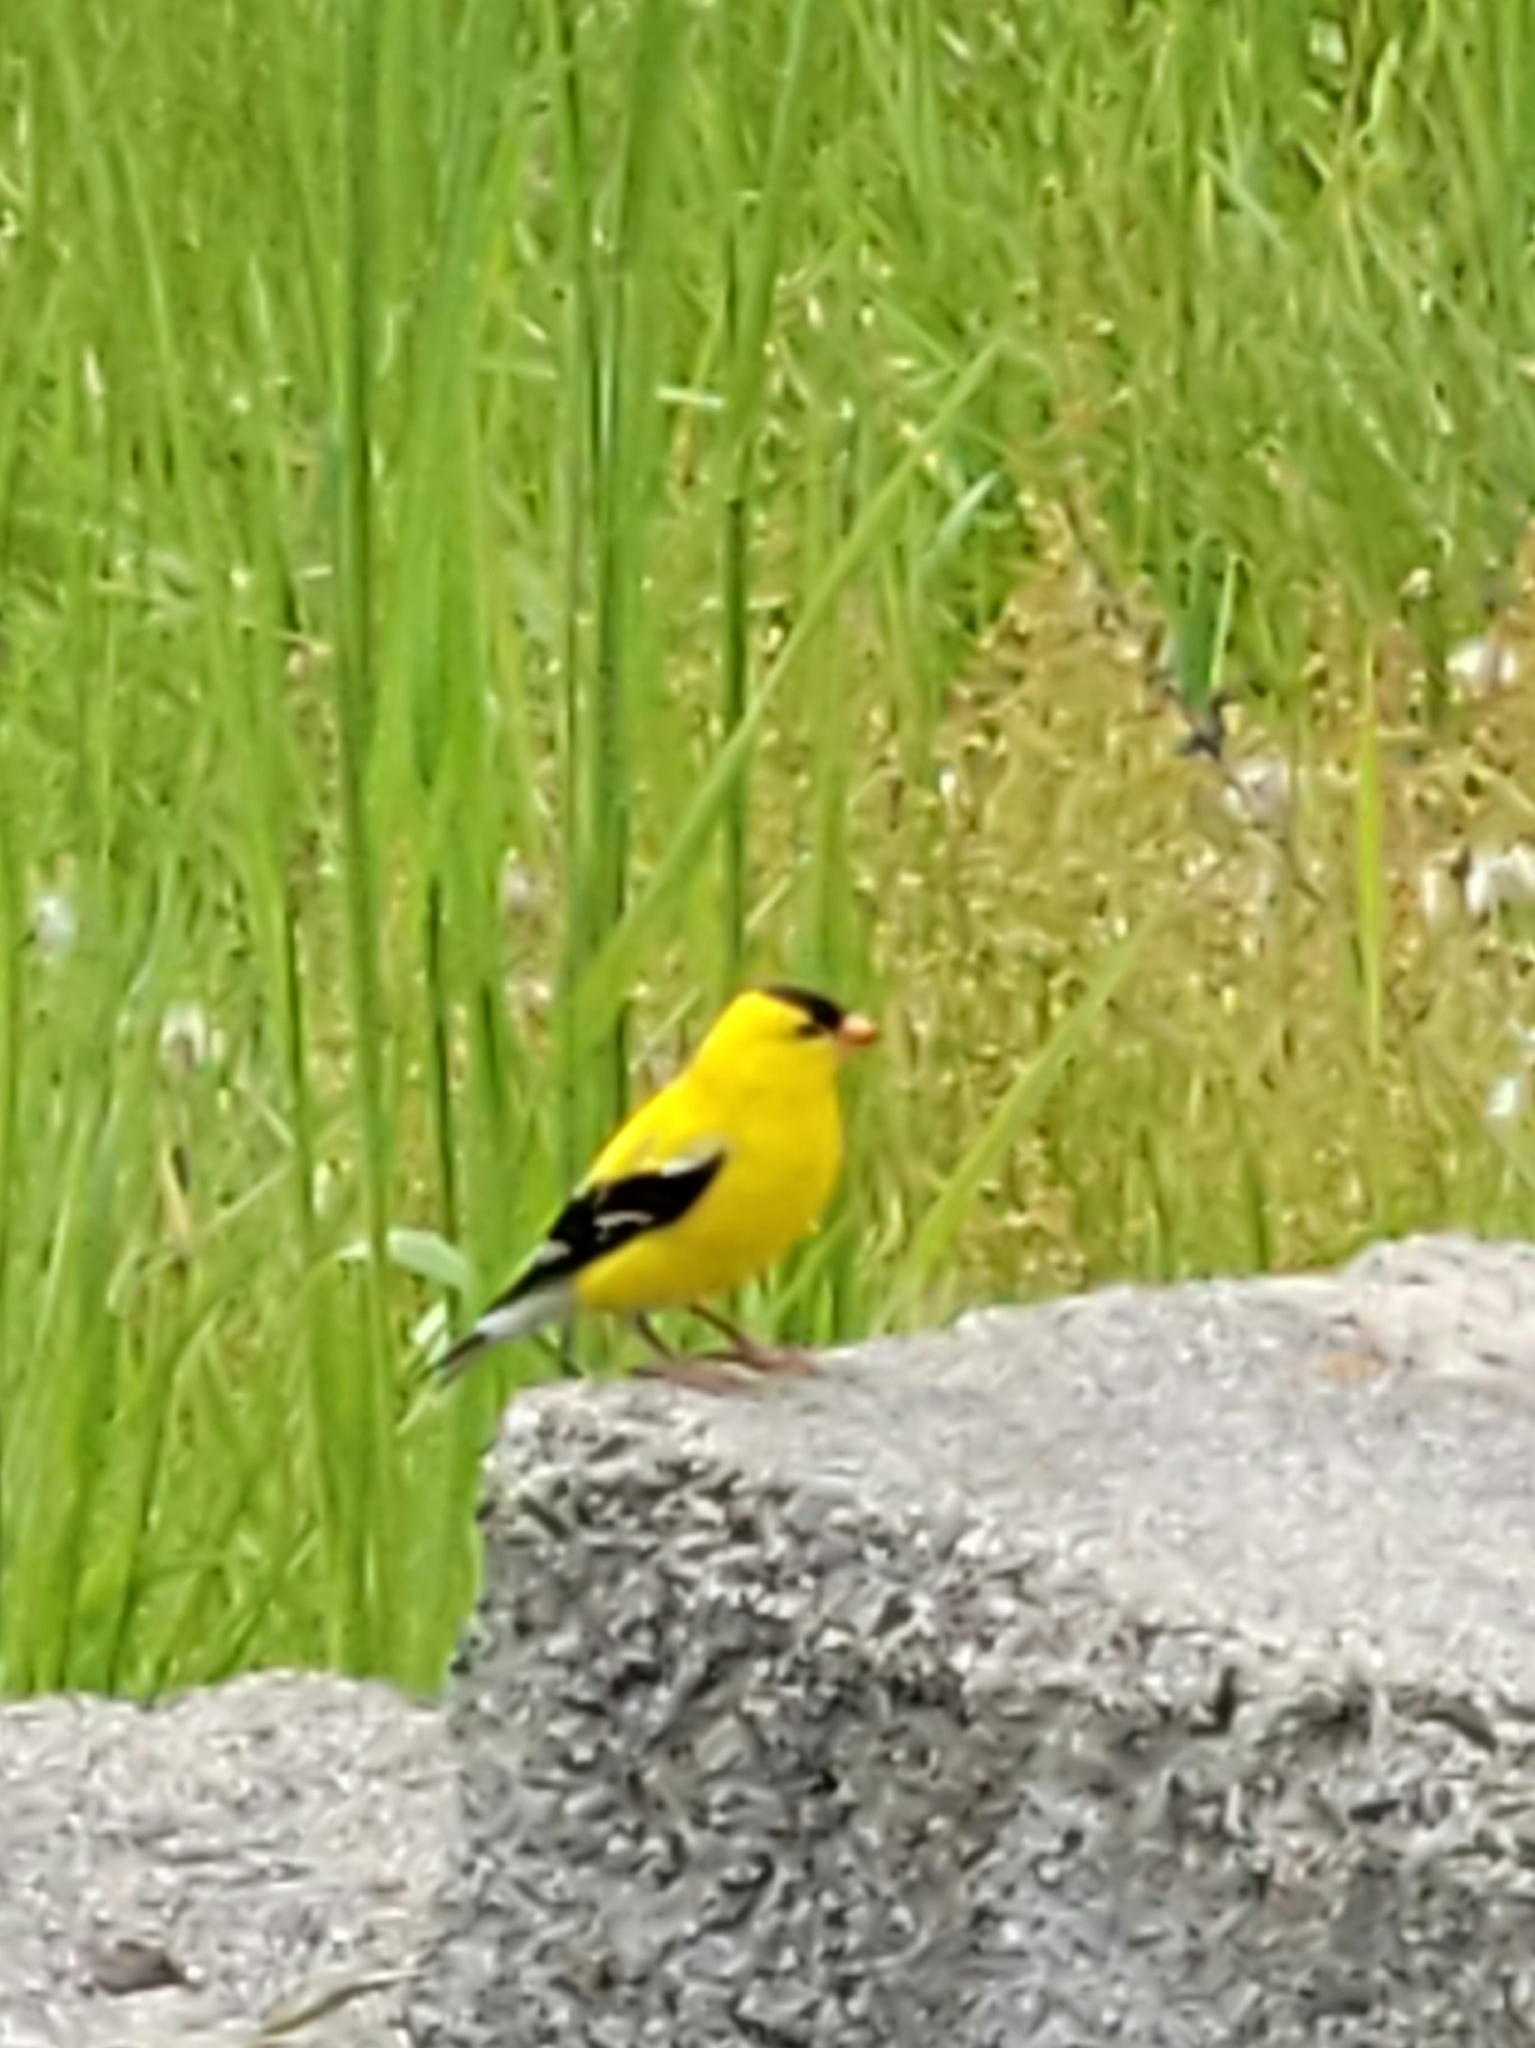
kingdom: Animalia
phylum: Chordata
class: Aves
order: Passeriformes
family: Fringillidae
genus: Spinus
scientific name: Spinus tristis
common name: American goldfinch
